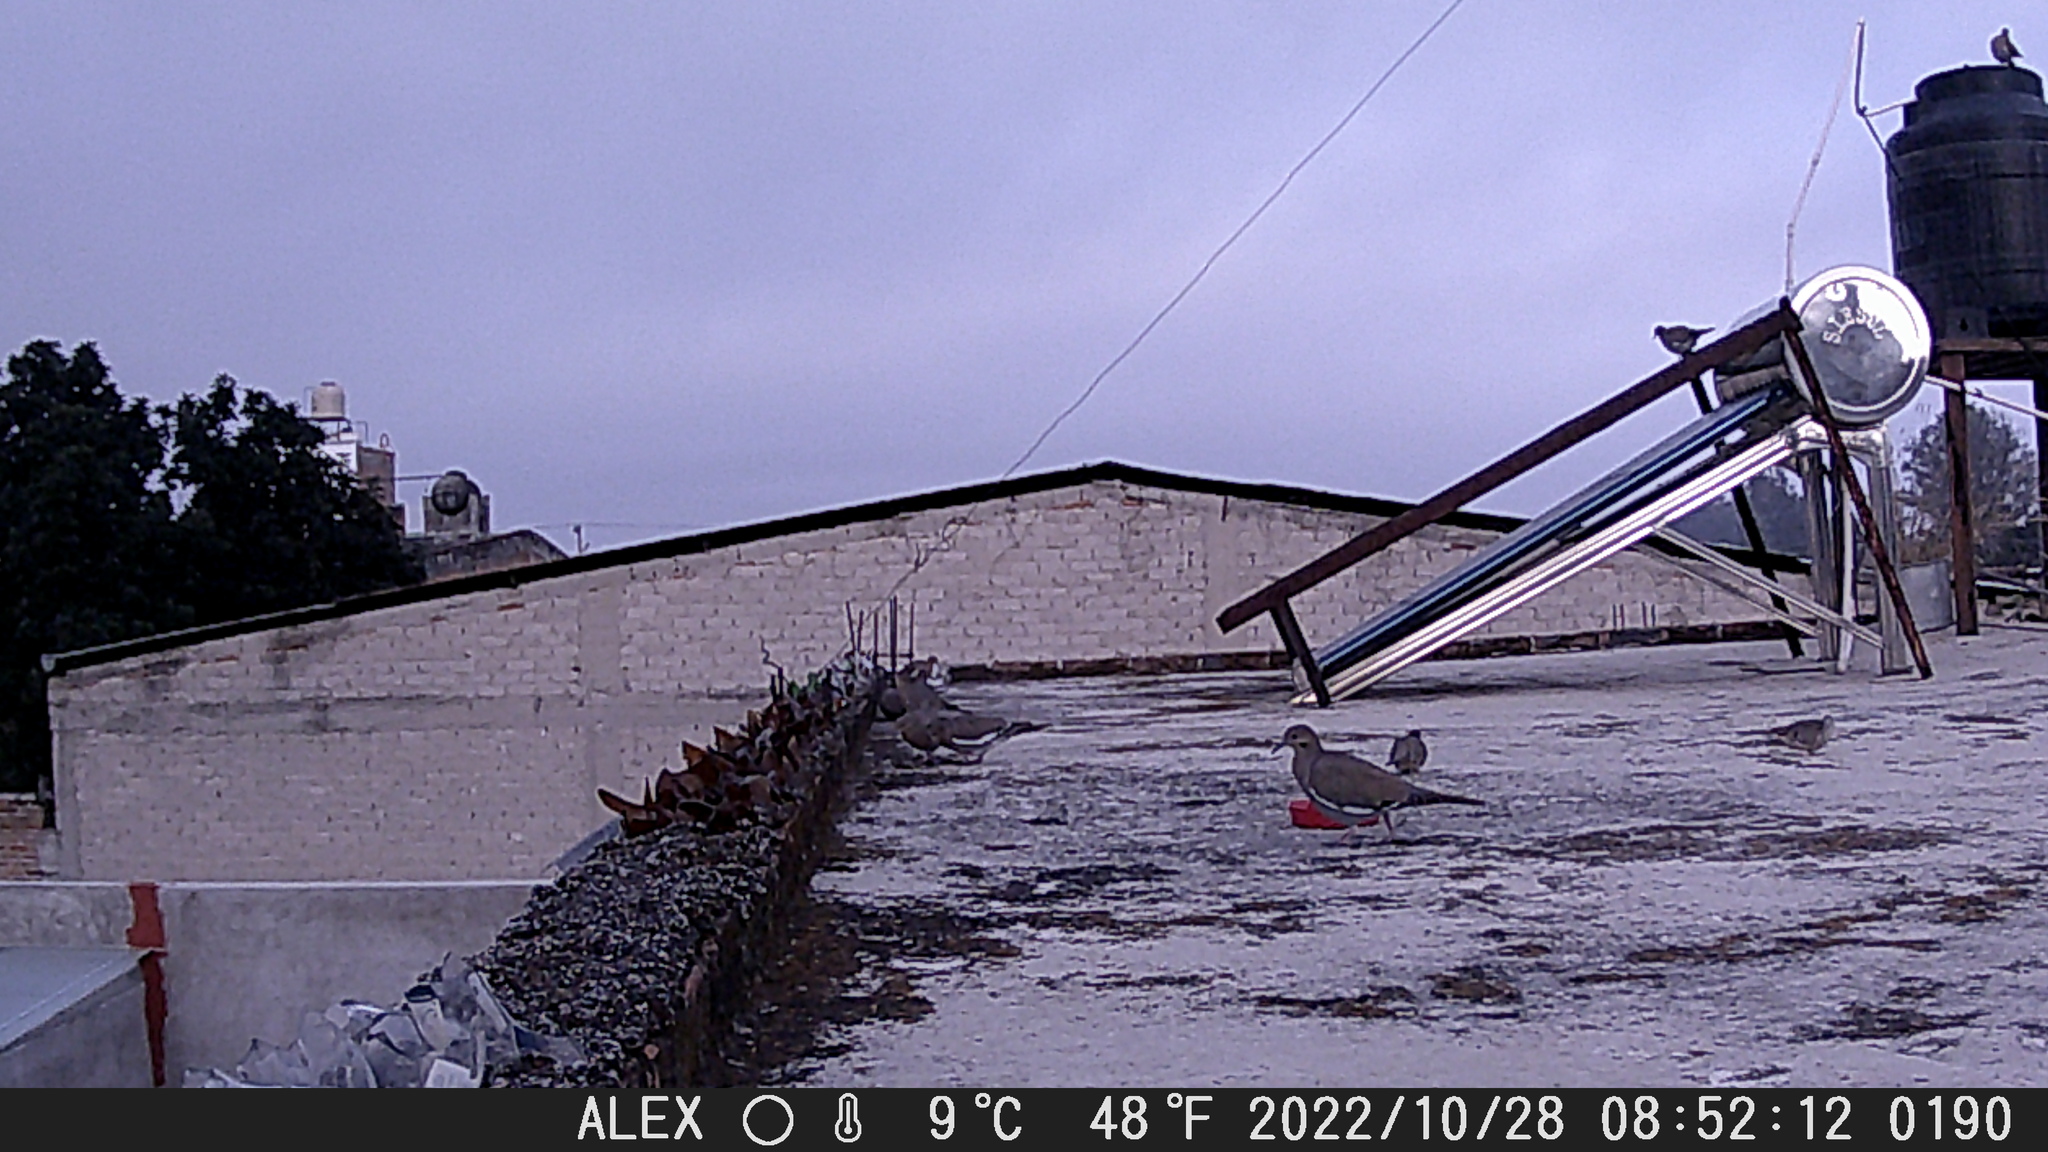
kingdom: Animalia
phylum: Chordata
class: Aves
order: Columbiformes
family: Columbidae
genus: Columbina
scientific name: Columbina inca
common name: Inca dove
